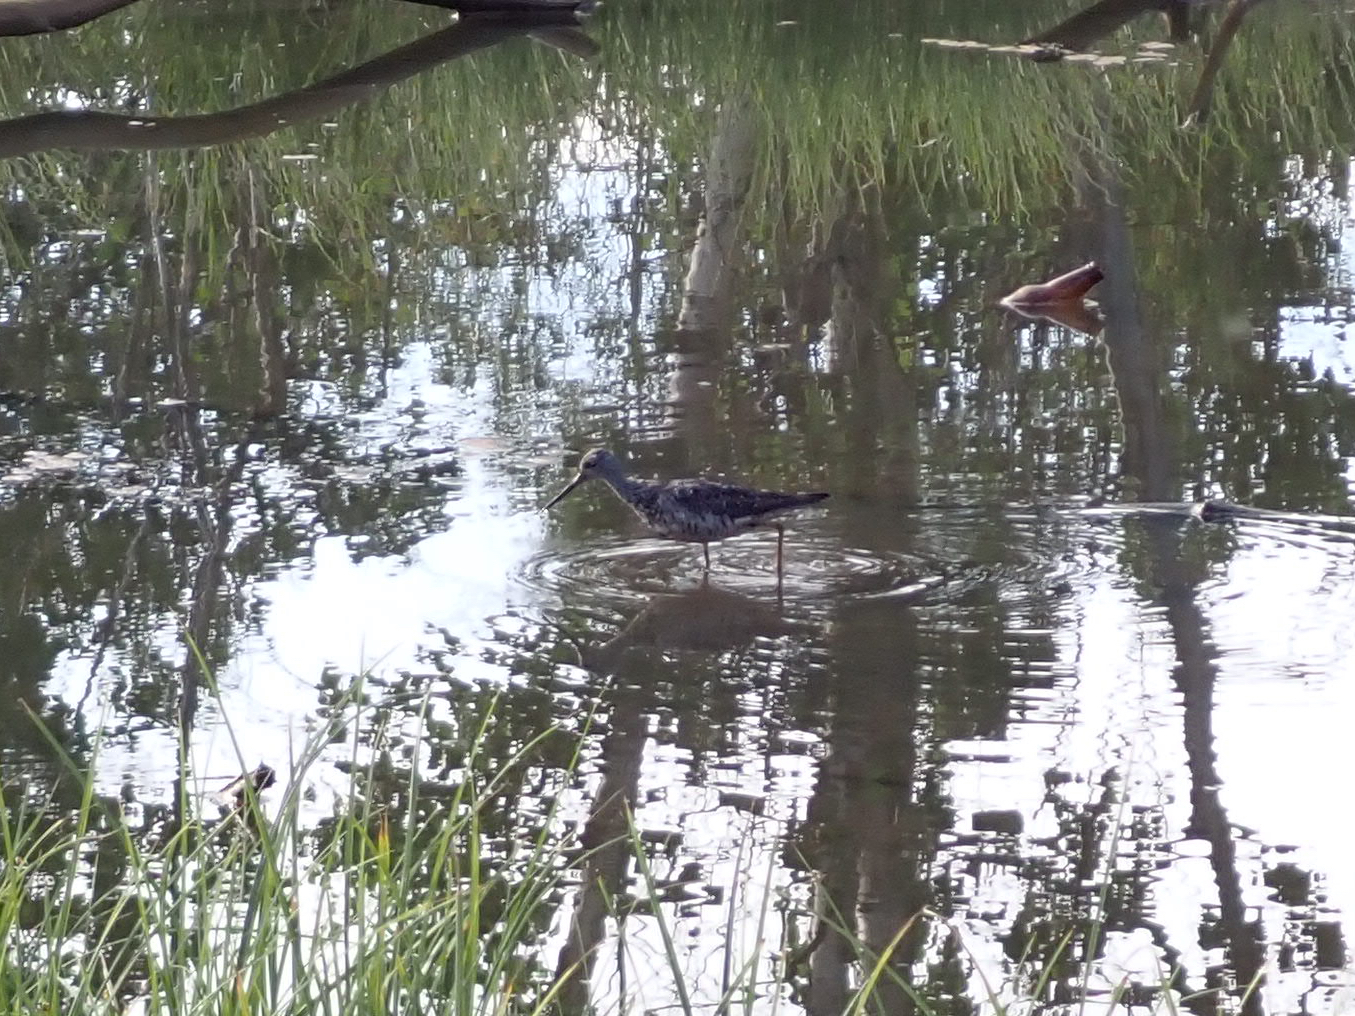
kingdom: Animalia
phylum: Chordata
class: Aves
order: Charadriiformes
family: Scolopacidae
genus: Tringa
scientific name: Tringa melanoleuca
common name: Greater yellowlegs
